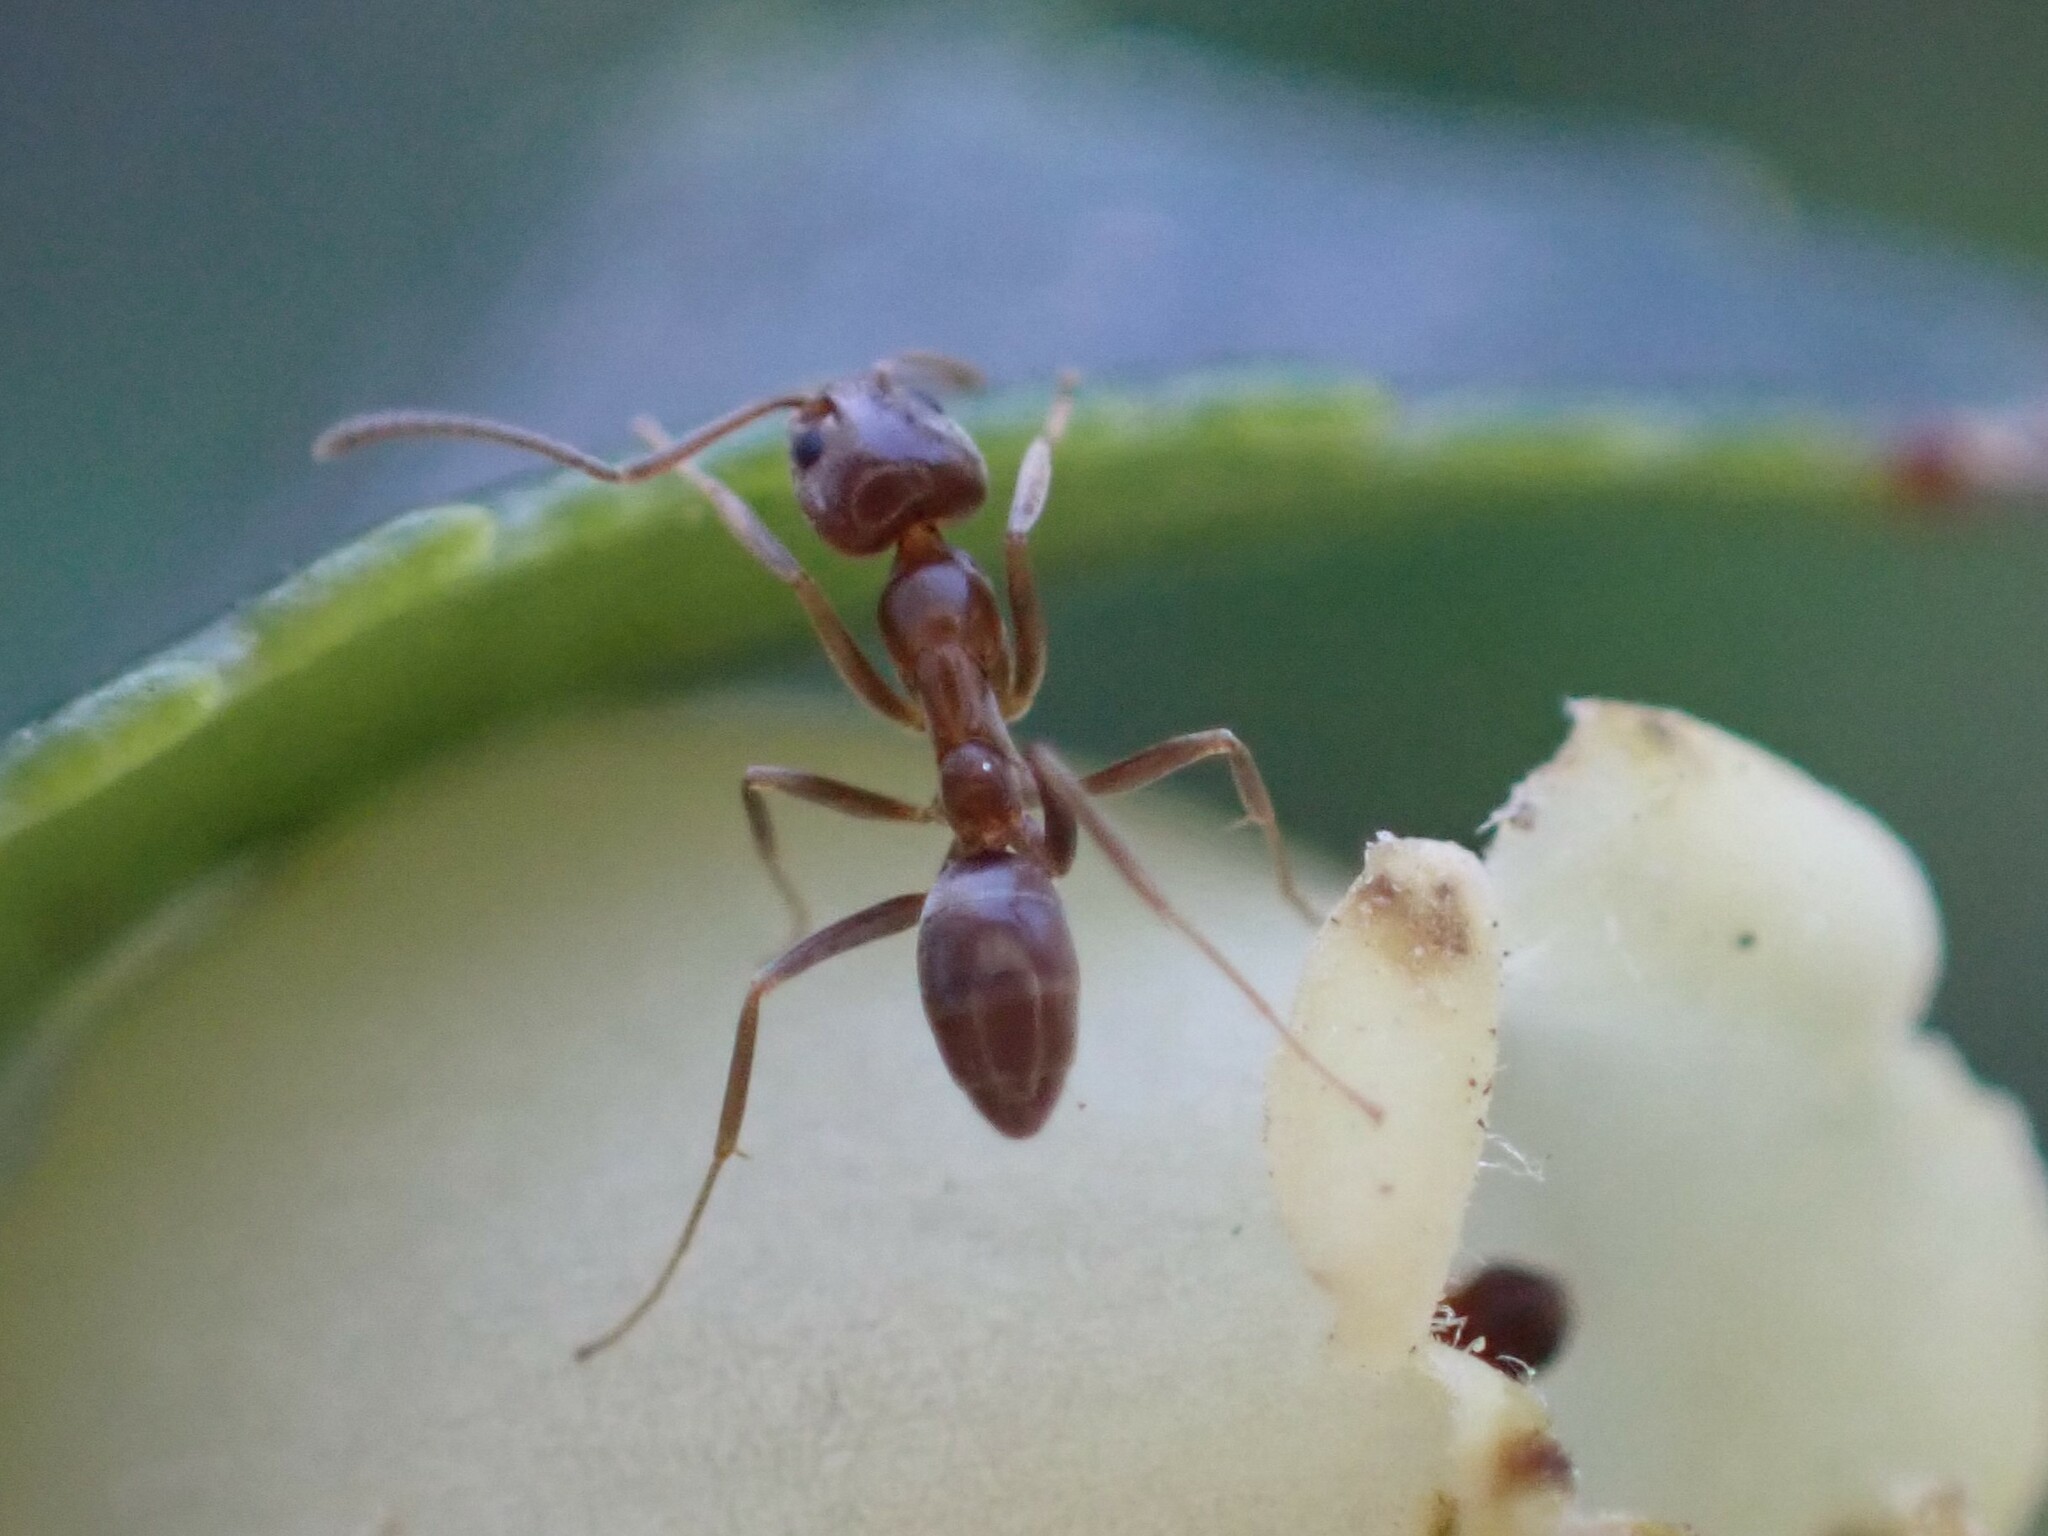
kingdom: Animalia
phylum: Arthropoda
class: Insecta
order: Hymenoptera
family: Formicidae
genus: Linepithema
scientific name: Linepithema humile
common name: Argentine ant
